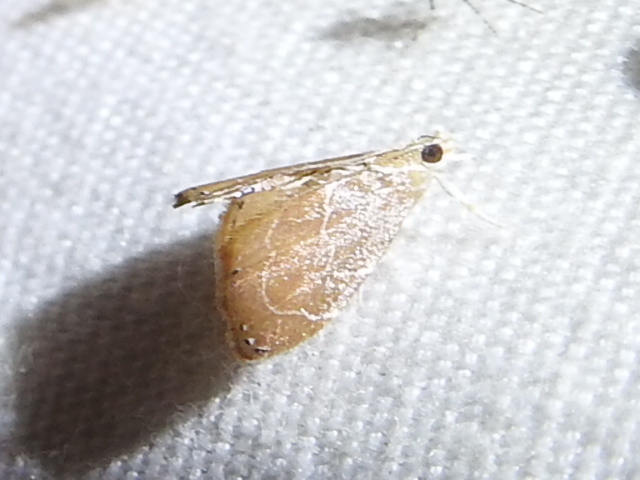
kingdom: Animalia
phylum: Arthropoda
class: Insecta
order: Lepidoptera
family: Crambidae
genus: Glaphyria
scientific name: Glaphyria peremptalis
